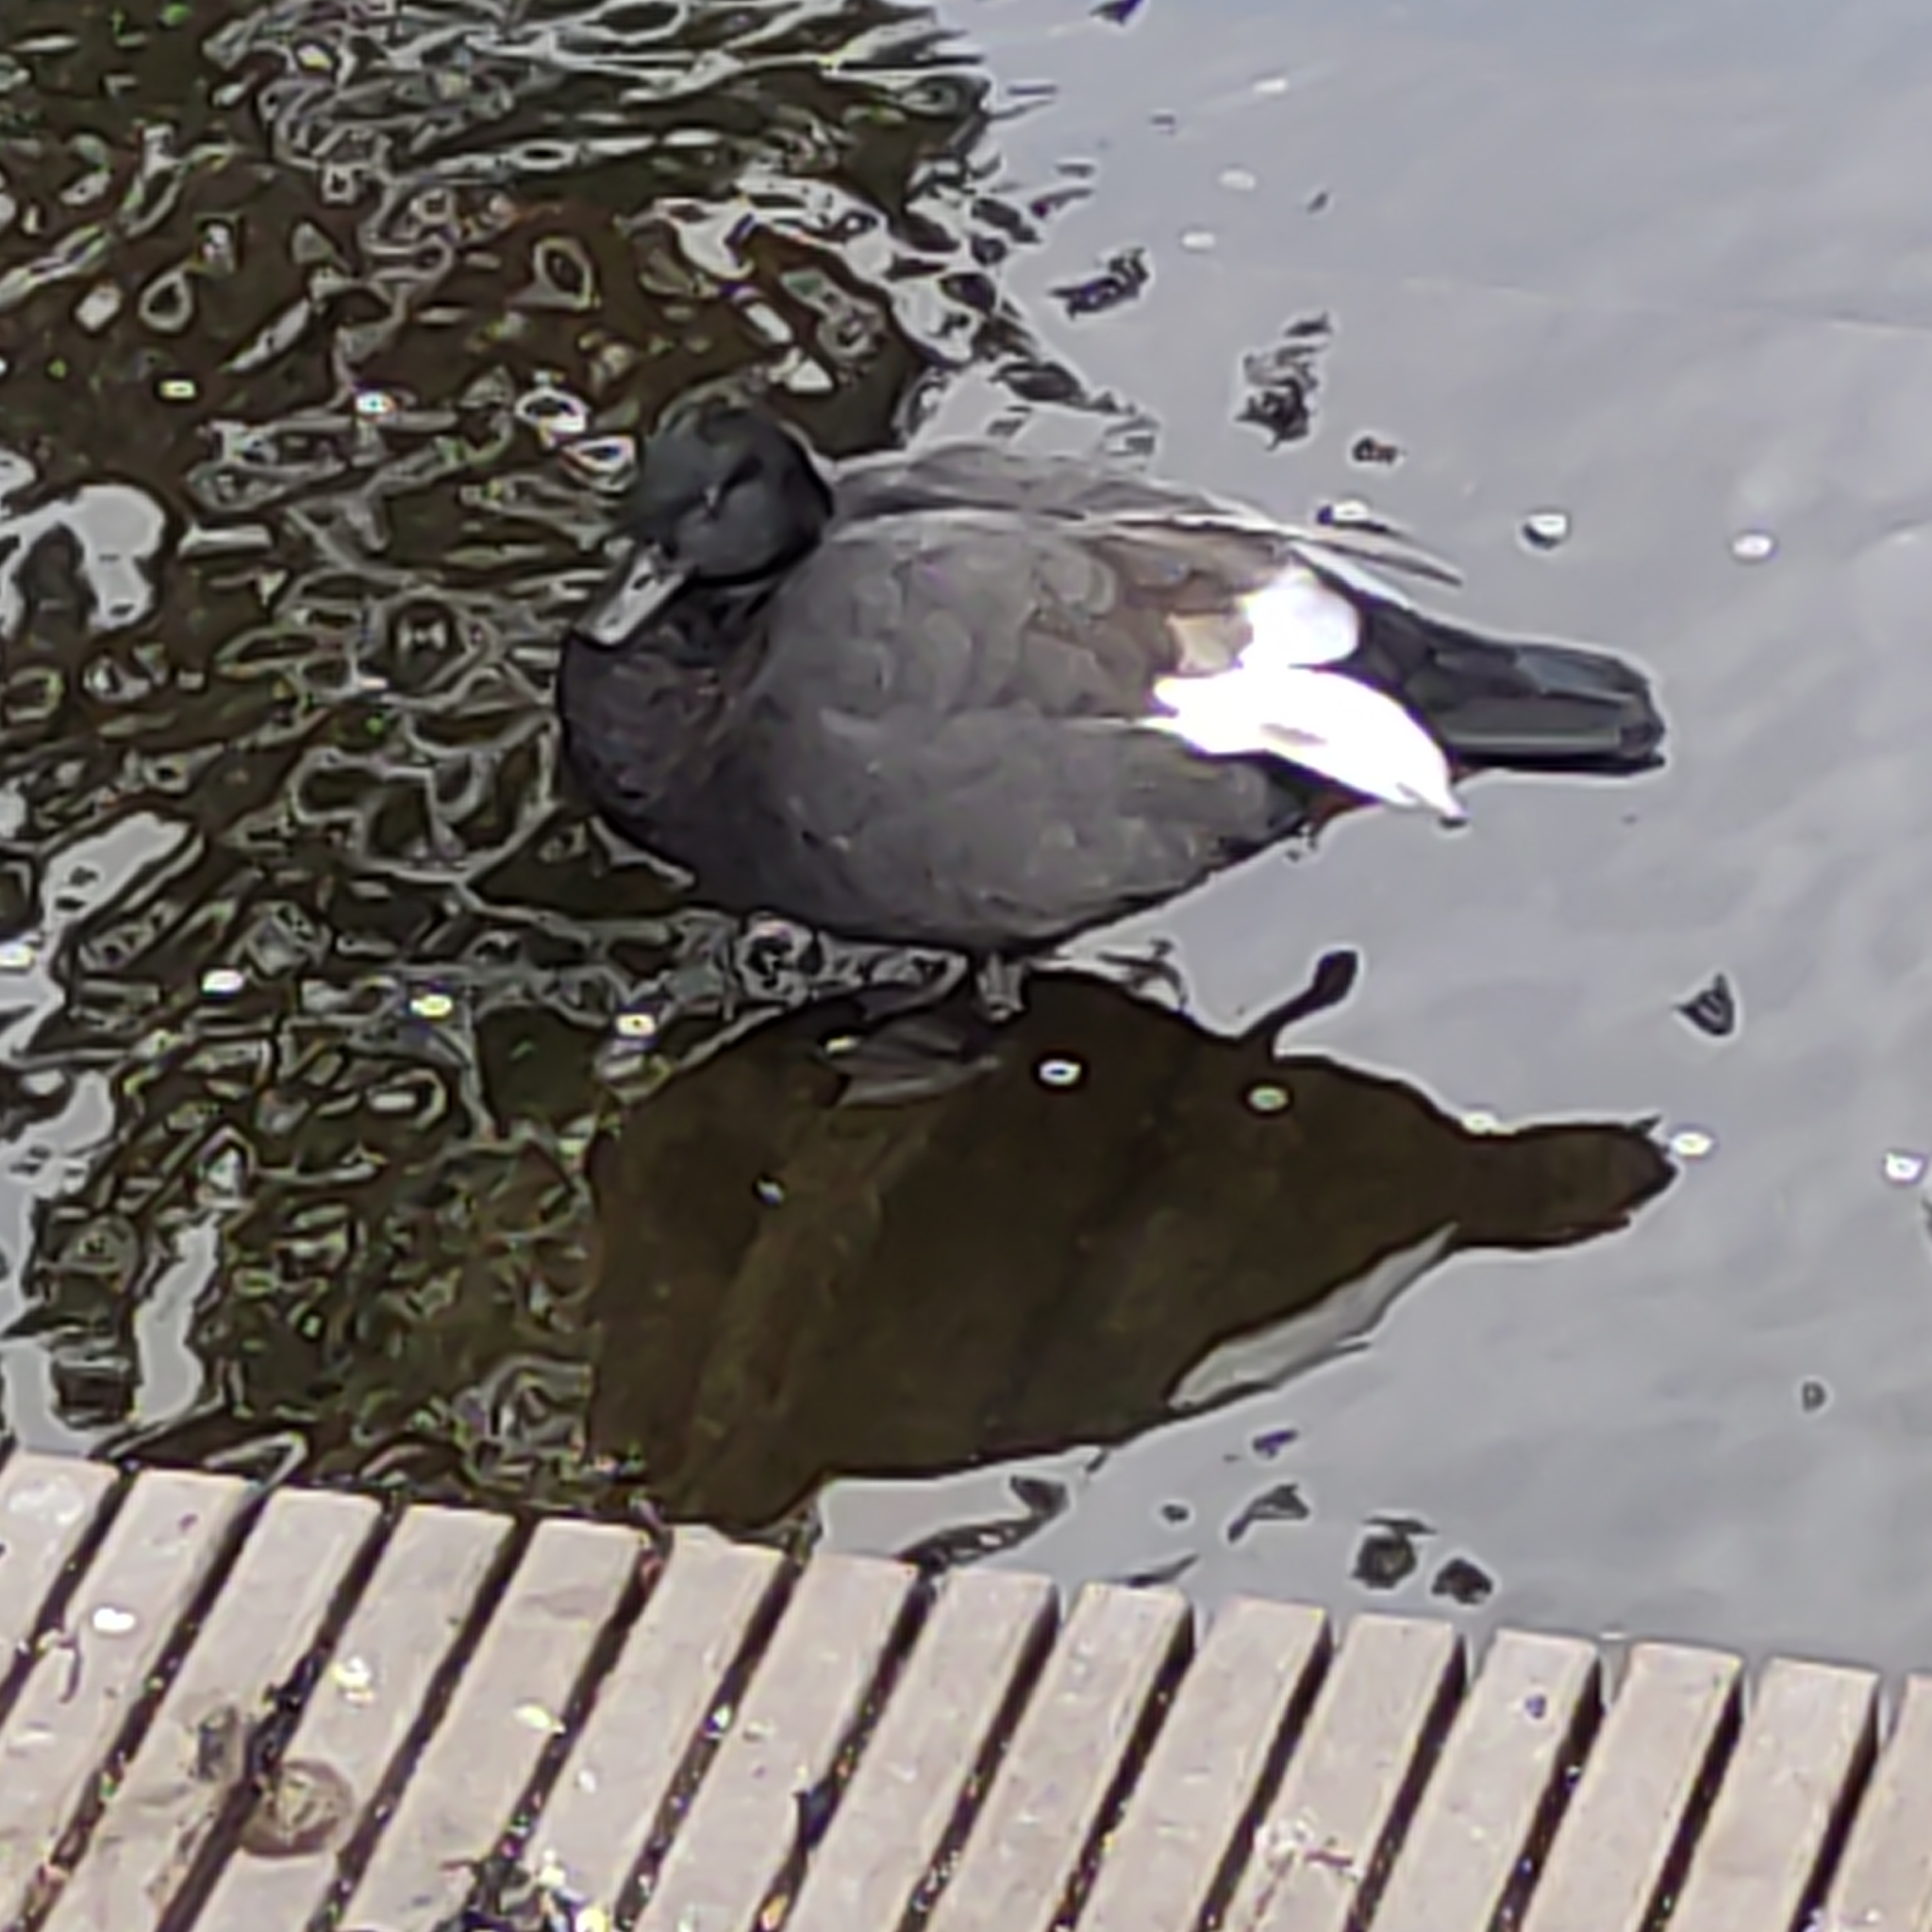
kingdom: Animalia
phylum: Chordata
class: Aves
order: Anseriformes
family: Anatidae
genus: Tadorna
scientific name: Tadorna variegata
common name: Paradise shelduck
